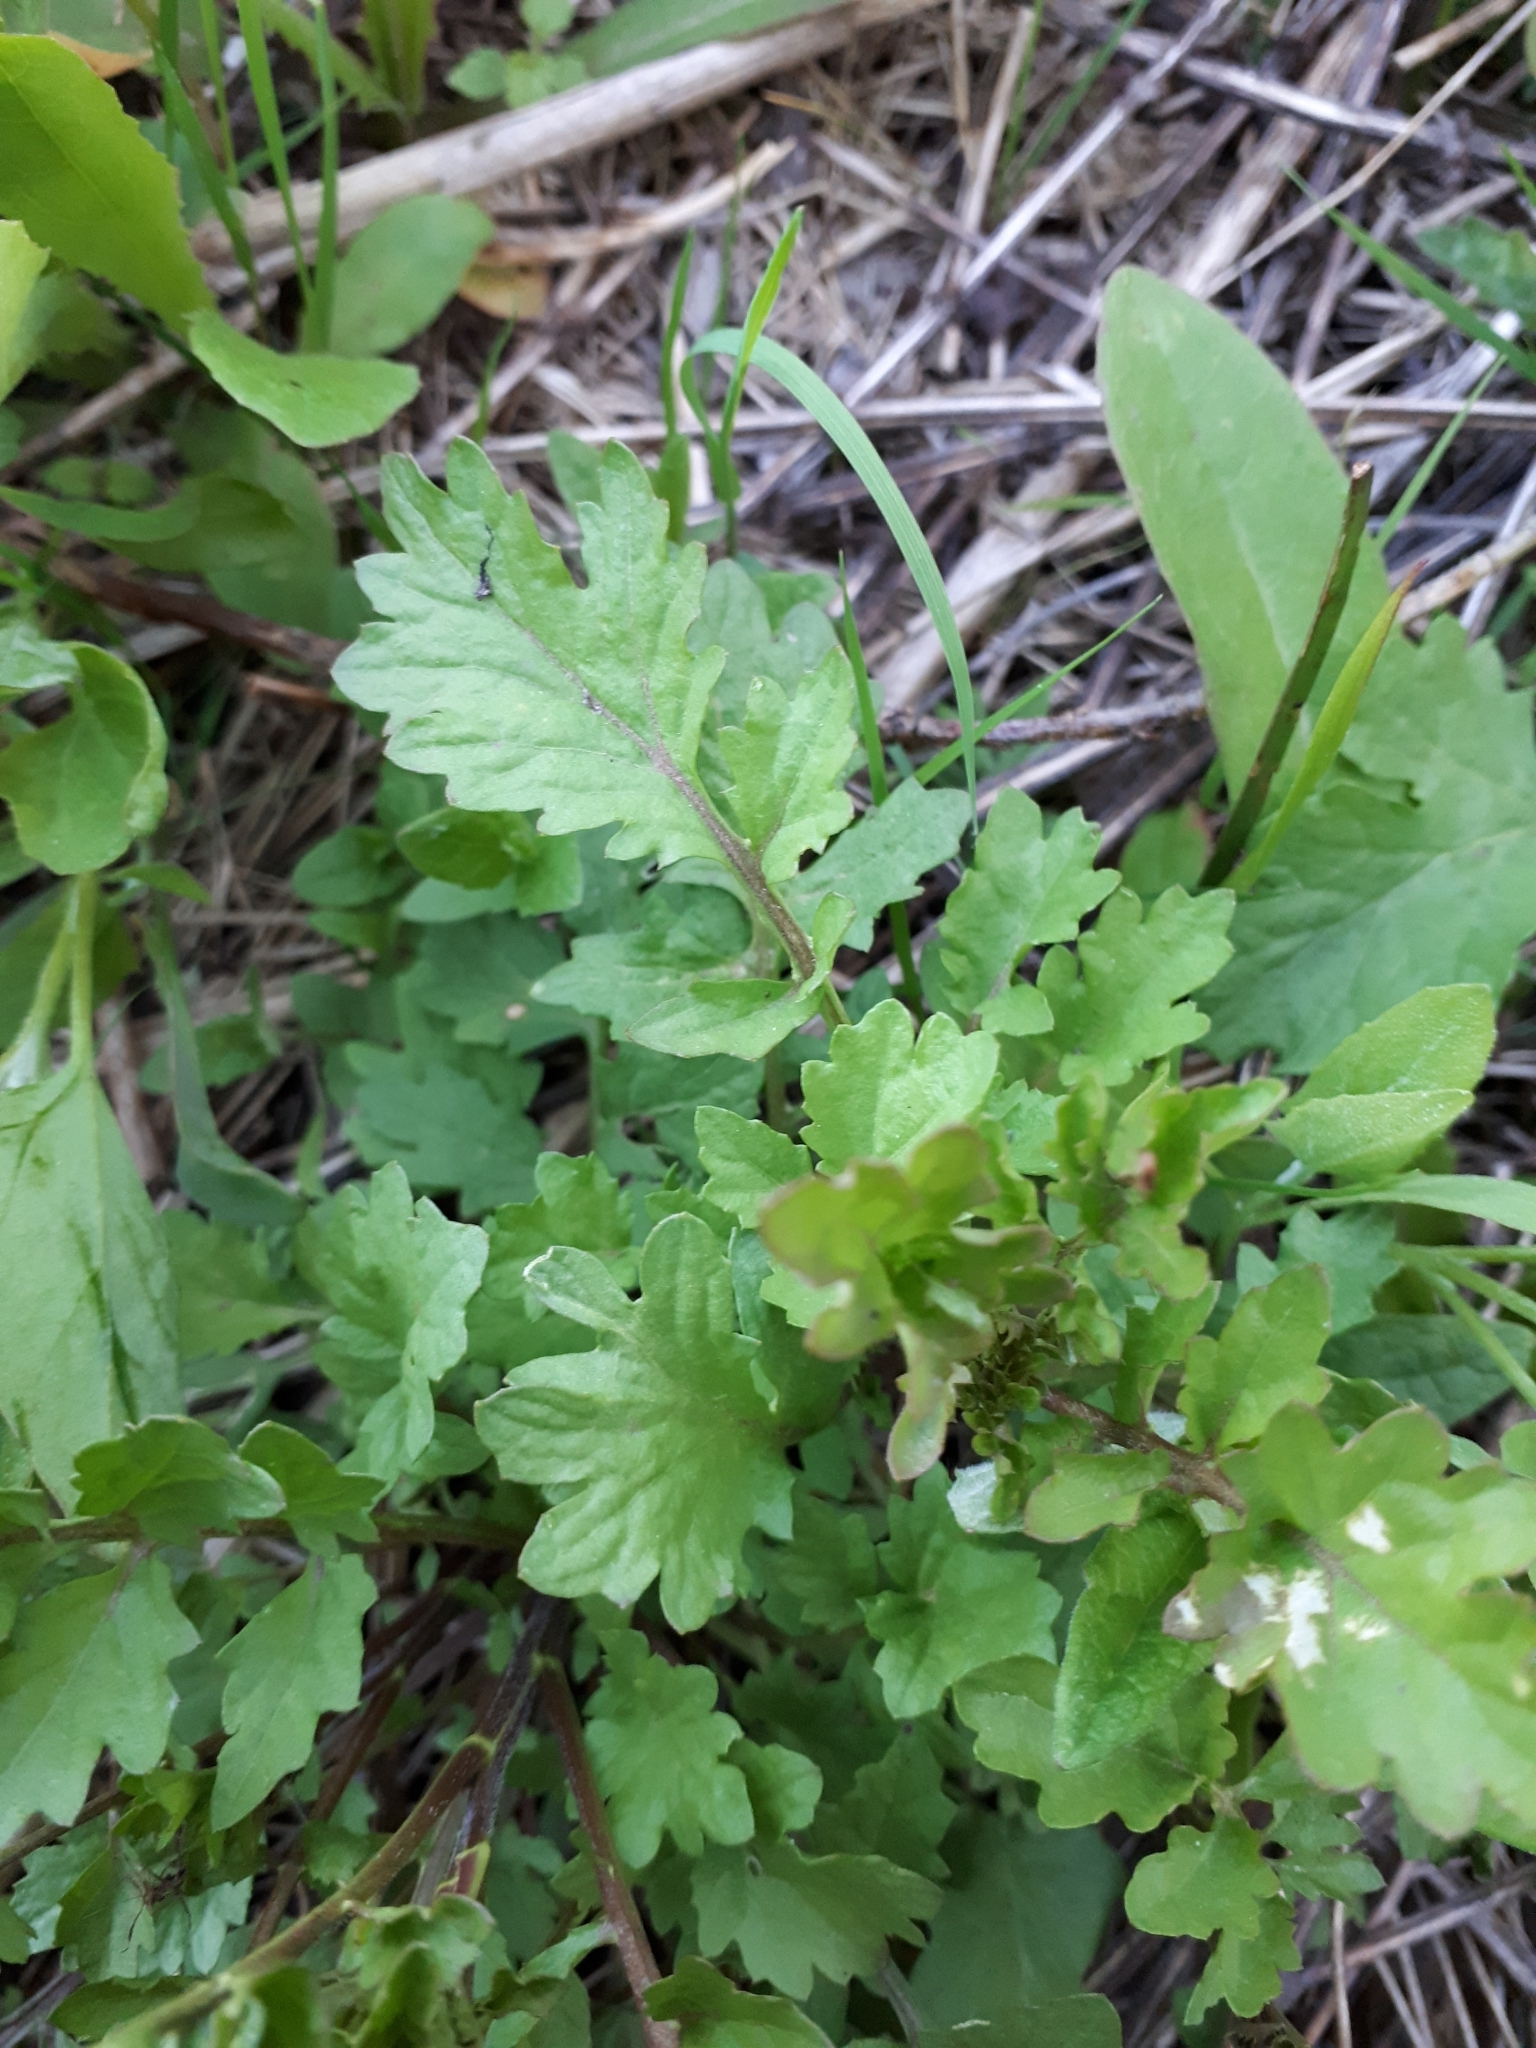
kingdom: Plantae
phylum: Tracheophyta
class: Magnoliopsida
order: Brassicales
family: Brassicaceae
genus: Rorippa
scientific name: Rorippa palustris
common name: Marsh yellow-cress
